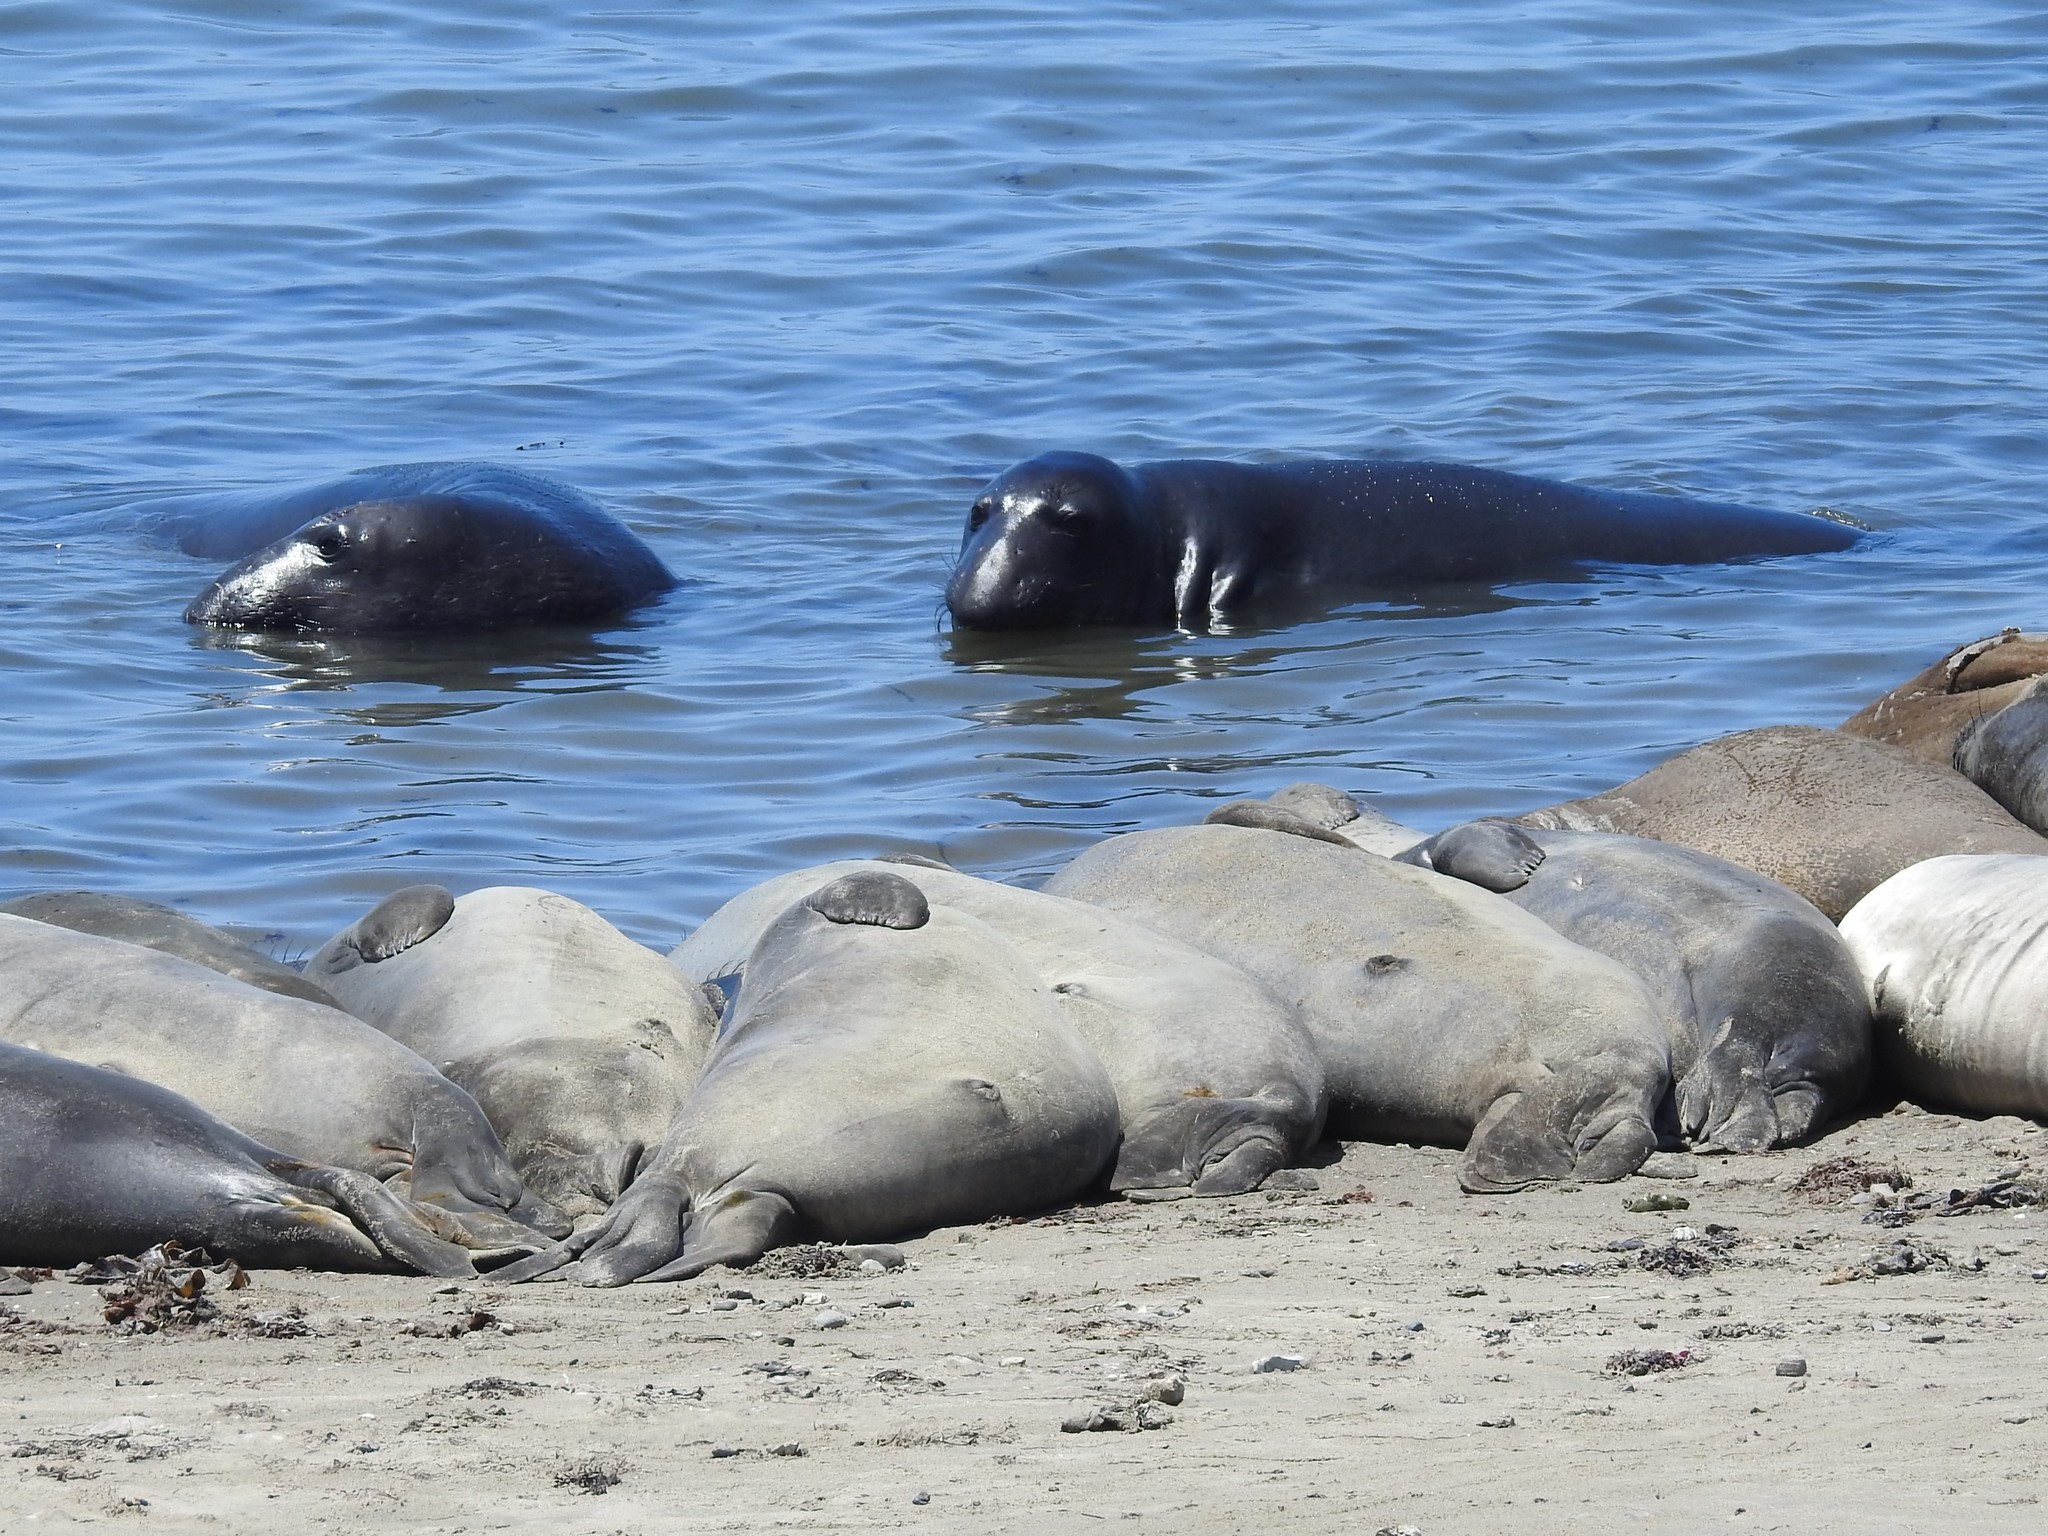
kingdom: Animalia
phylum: Chordata
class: Mammalia
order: Carnivora
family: Phocidae
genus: Mirounga
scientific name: Mirounga angustirostris
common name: Northern elephant seal
